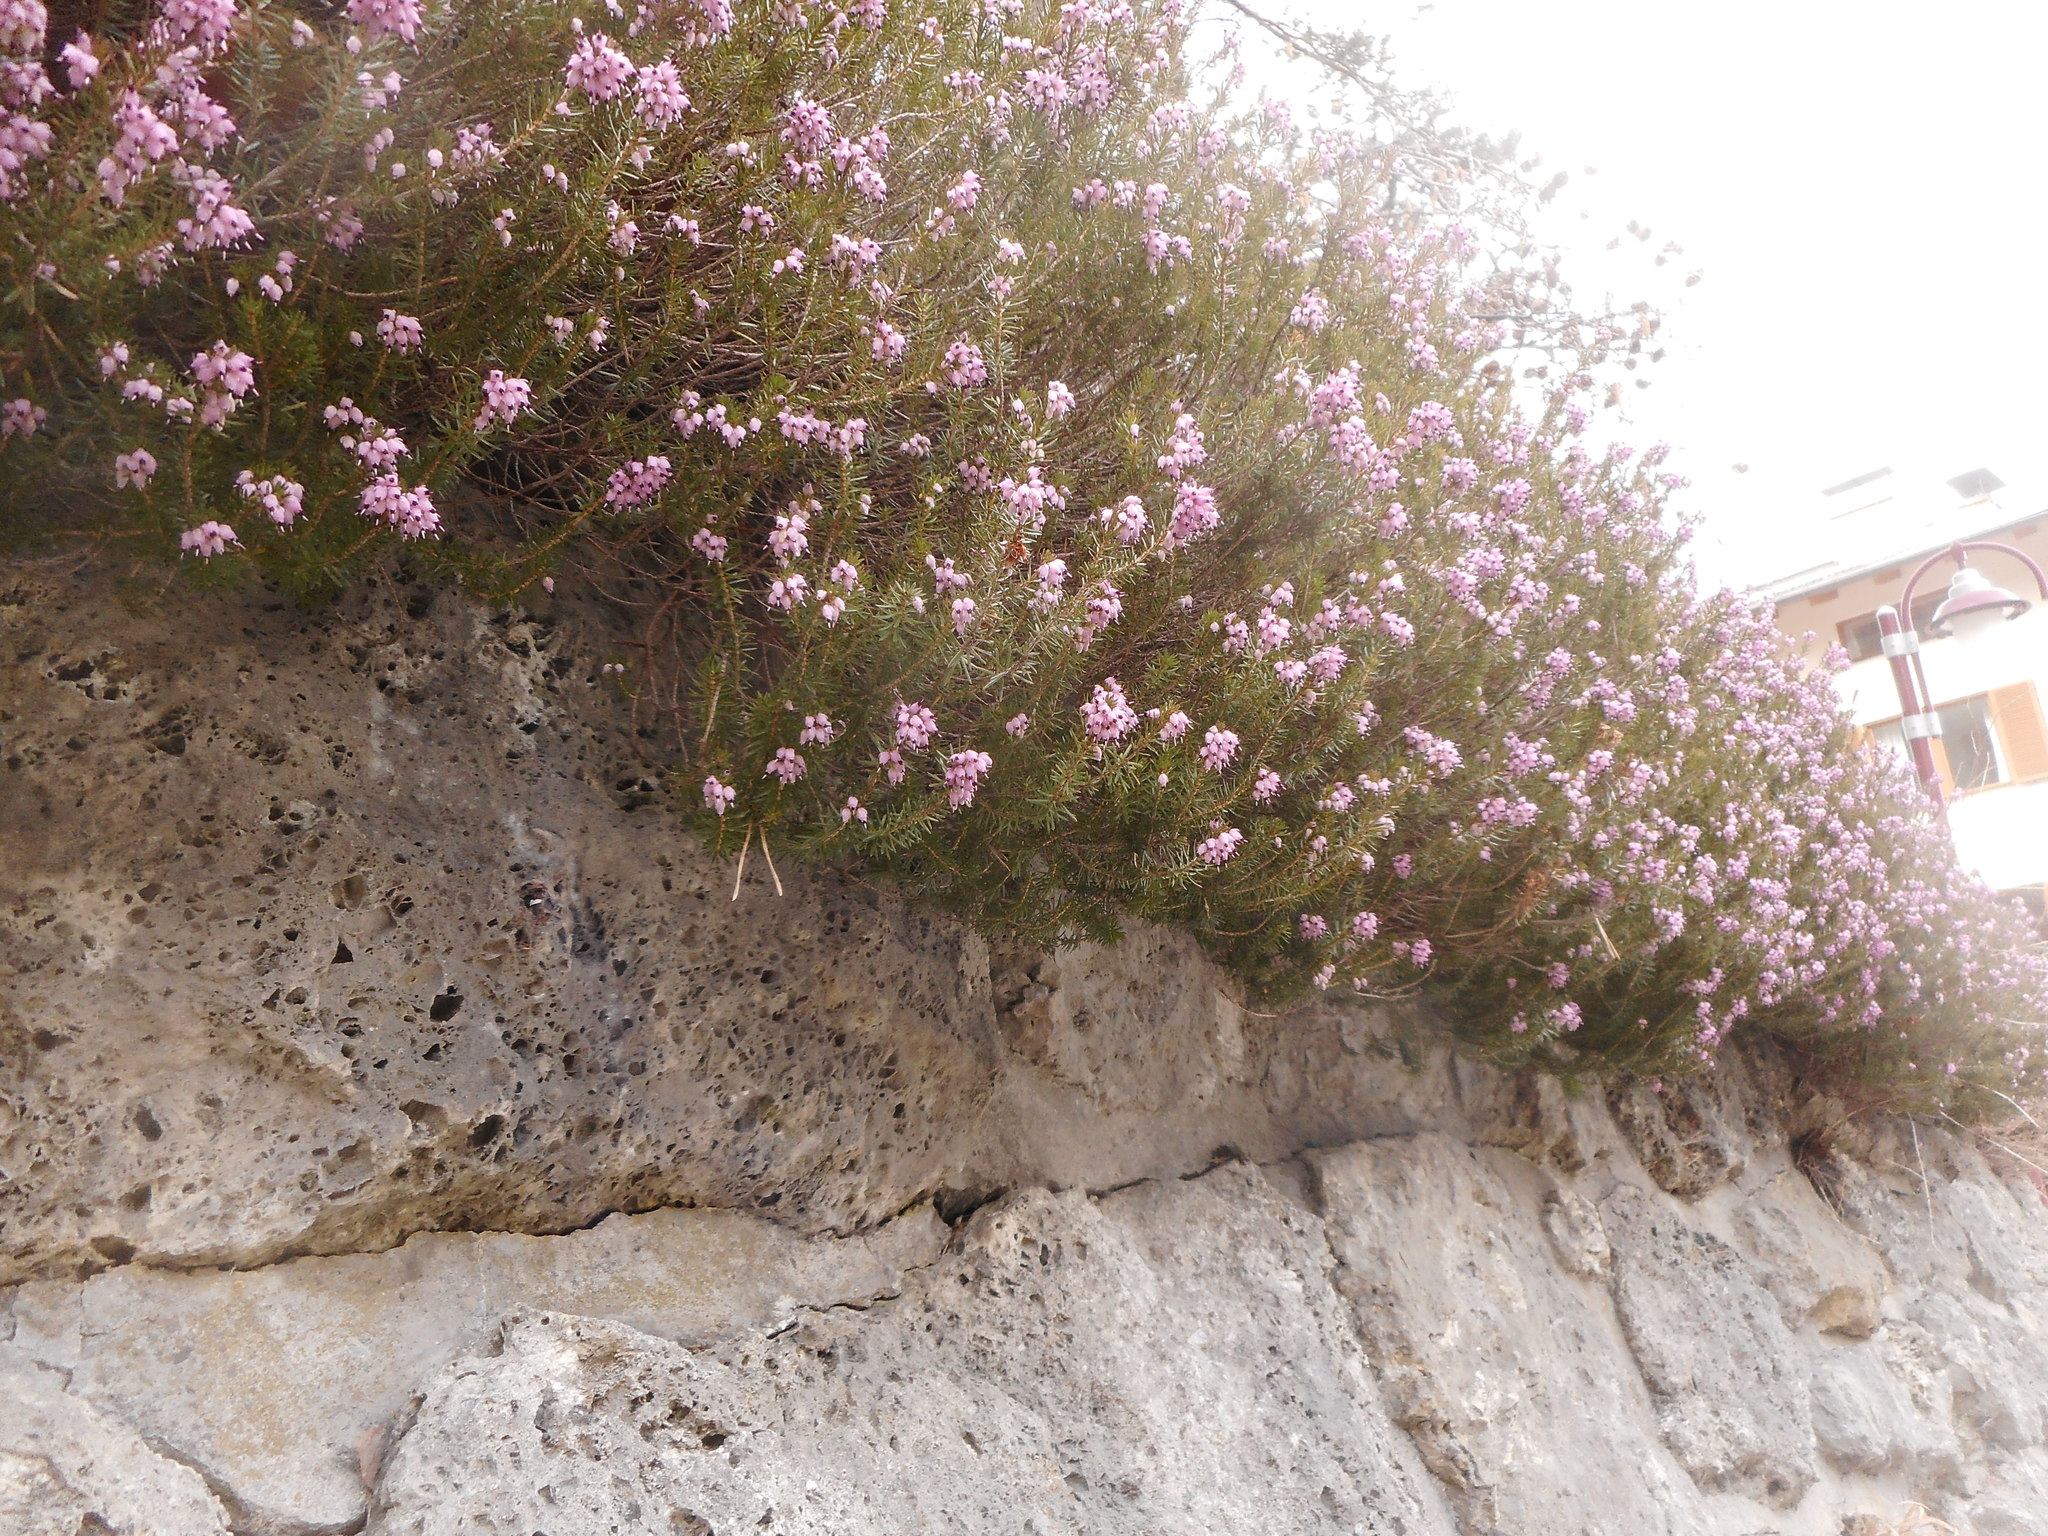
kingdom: Plantae
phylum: Tracheophyta
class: Magnoliopsida
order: Ericales
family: Ericaceae
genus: Erica
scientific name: Erica carnea
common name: Winter heath
